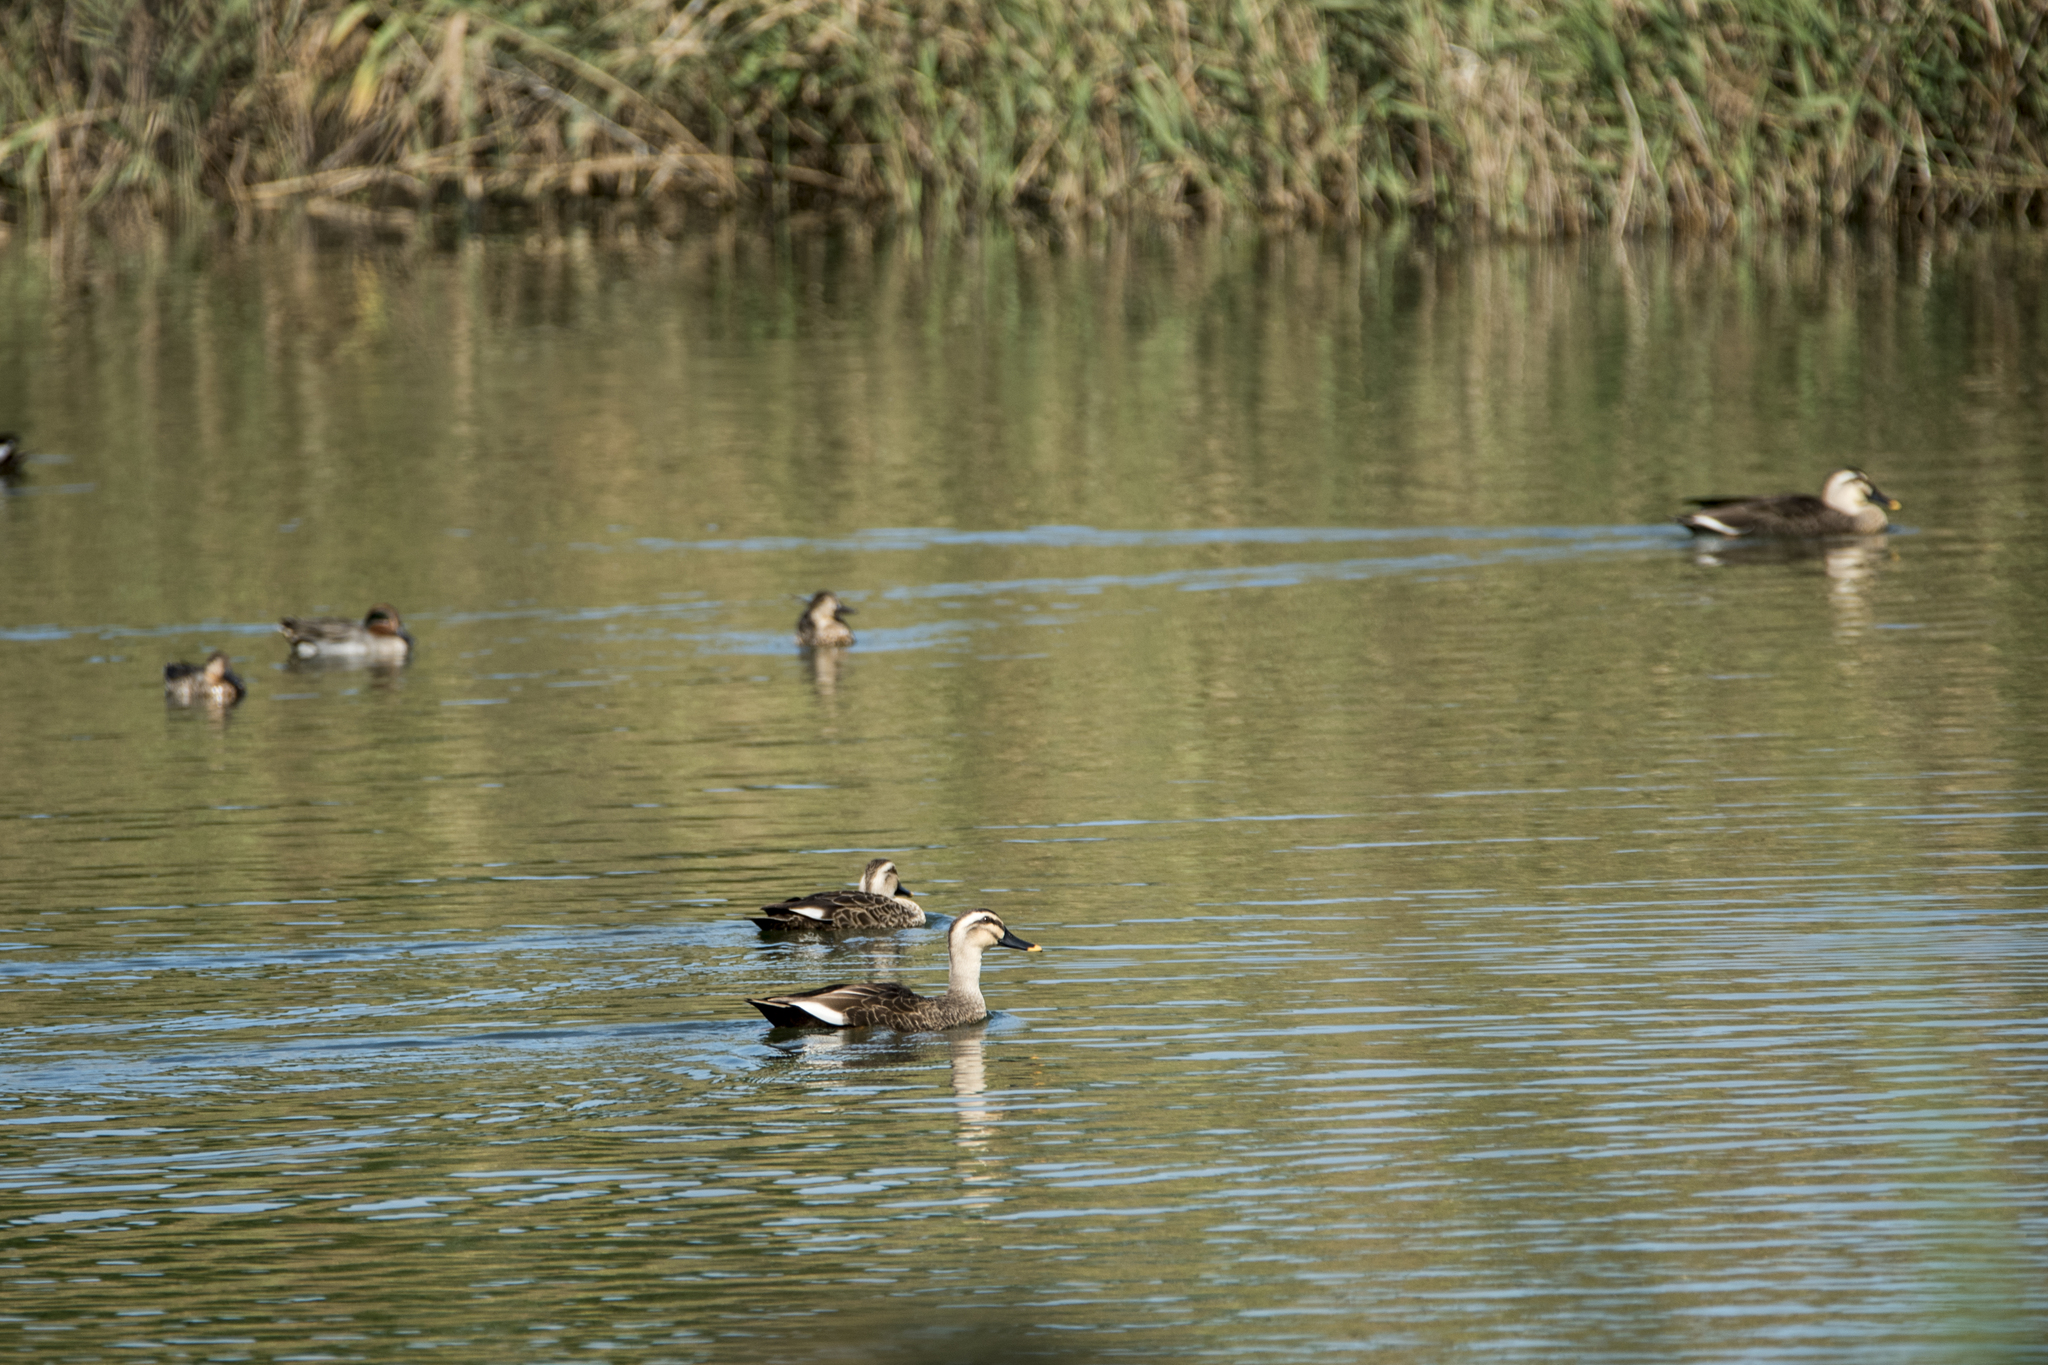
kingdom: Animalia
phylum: Chordata
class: Aves
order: Anseriformes
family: Anatidae
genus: Anas
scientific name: Anas zonorhyncha
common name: Eastern spot-billed duck
